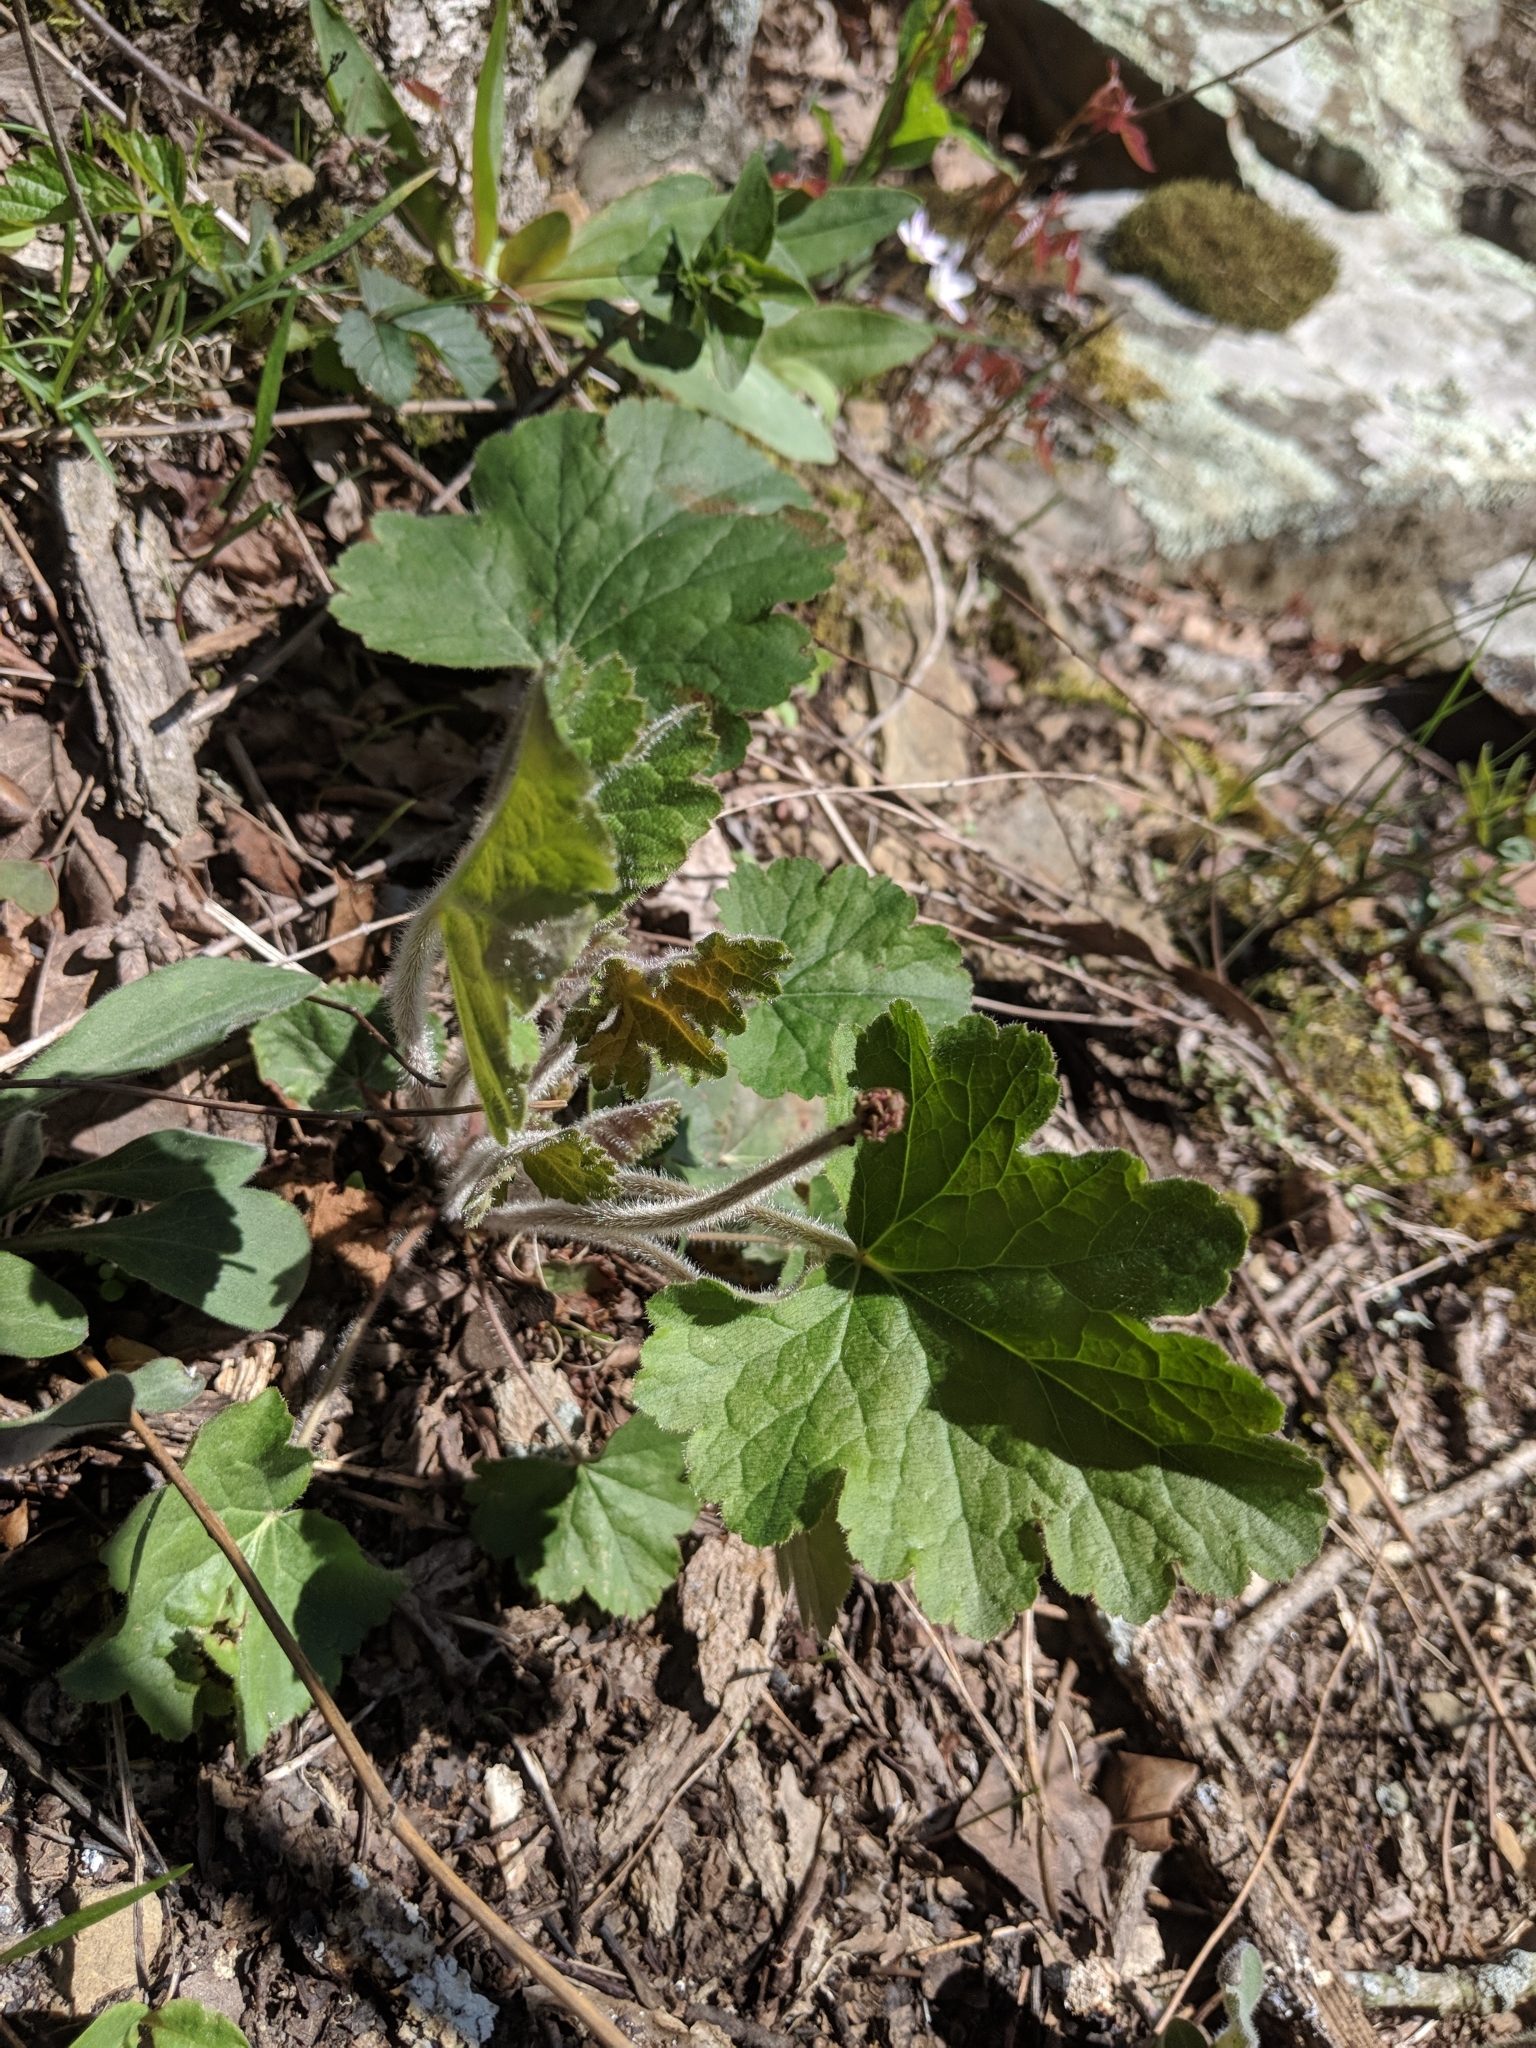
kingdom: Plantae
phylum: Tracheophyta
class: Magnoliopsida
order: Saxifragales
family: Saxifragaceae
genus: Heuchera
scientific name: Heuchera americana
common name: Alumroot
